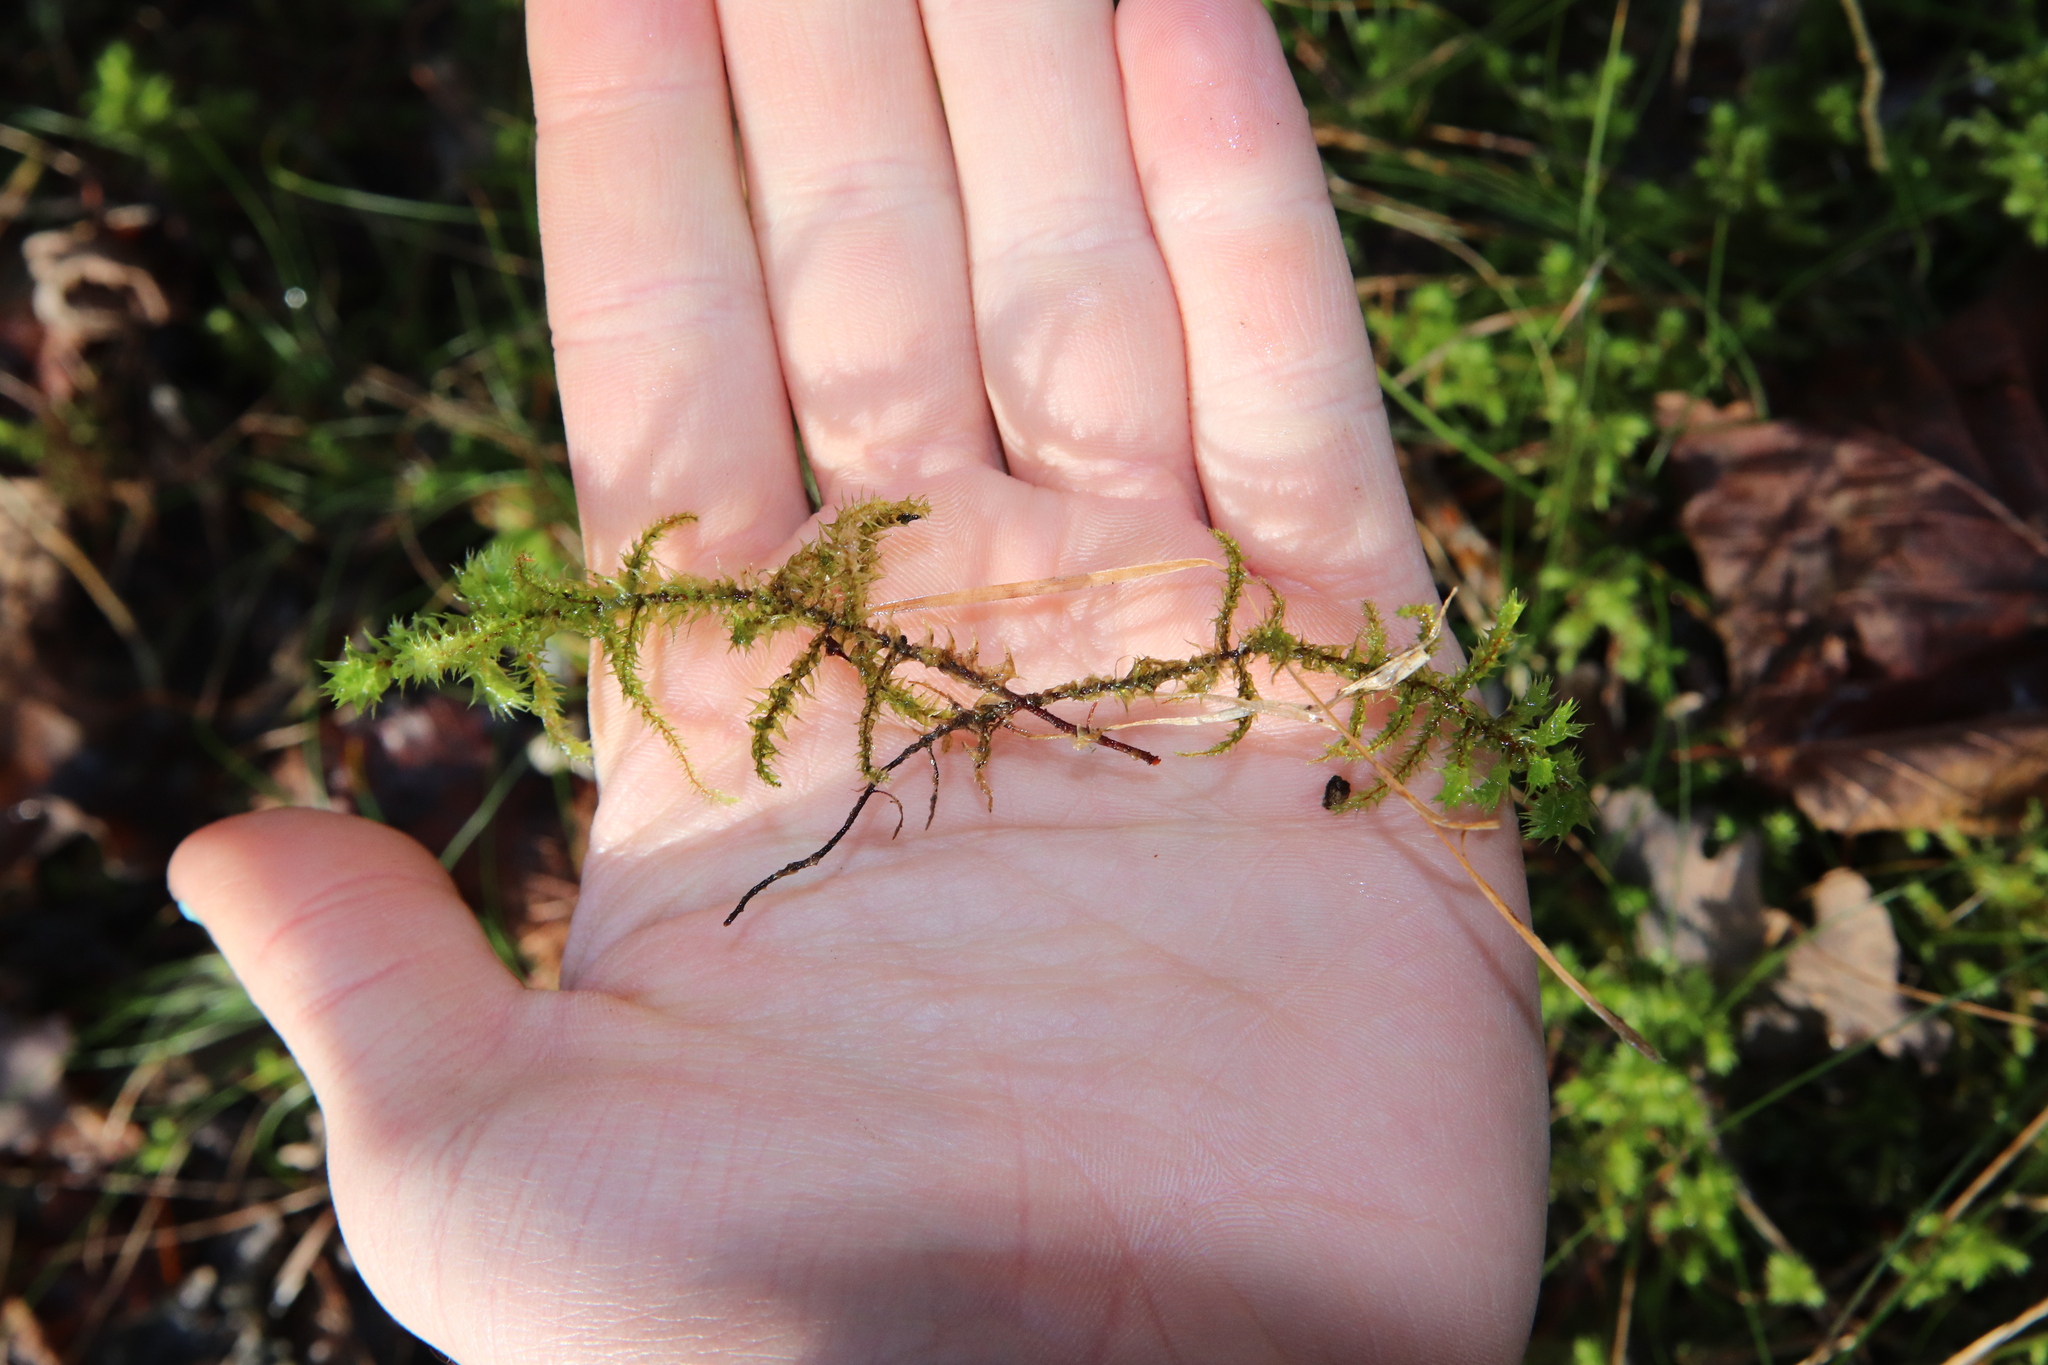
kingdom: Plantae
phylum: Bryophyta
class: Bryopsida
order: Hypnales
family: Hylocomiaceae
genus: Hylocomiadelphus
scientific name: Hylocomiadelphus triquetrus
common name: Rough goose neck moss
